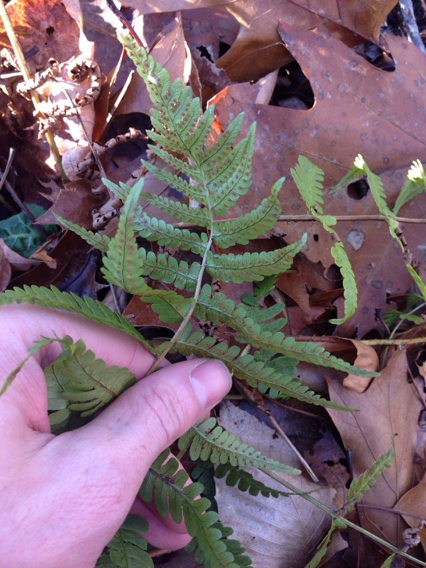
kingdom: Plantae
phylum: Tracheophyta
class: Polypodiopsida
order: Polypodiales
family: Dryopteridaceae
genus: Dryopteris
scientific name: Dryopteris marginalis
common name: Marginal wood fern
